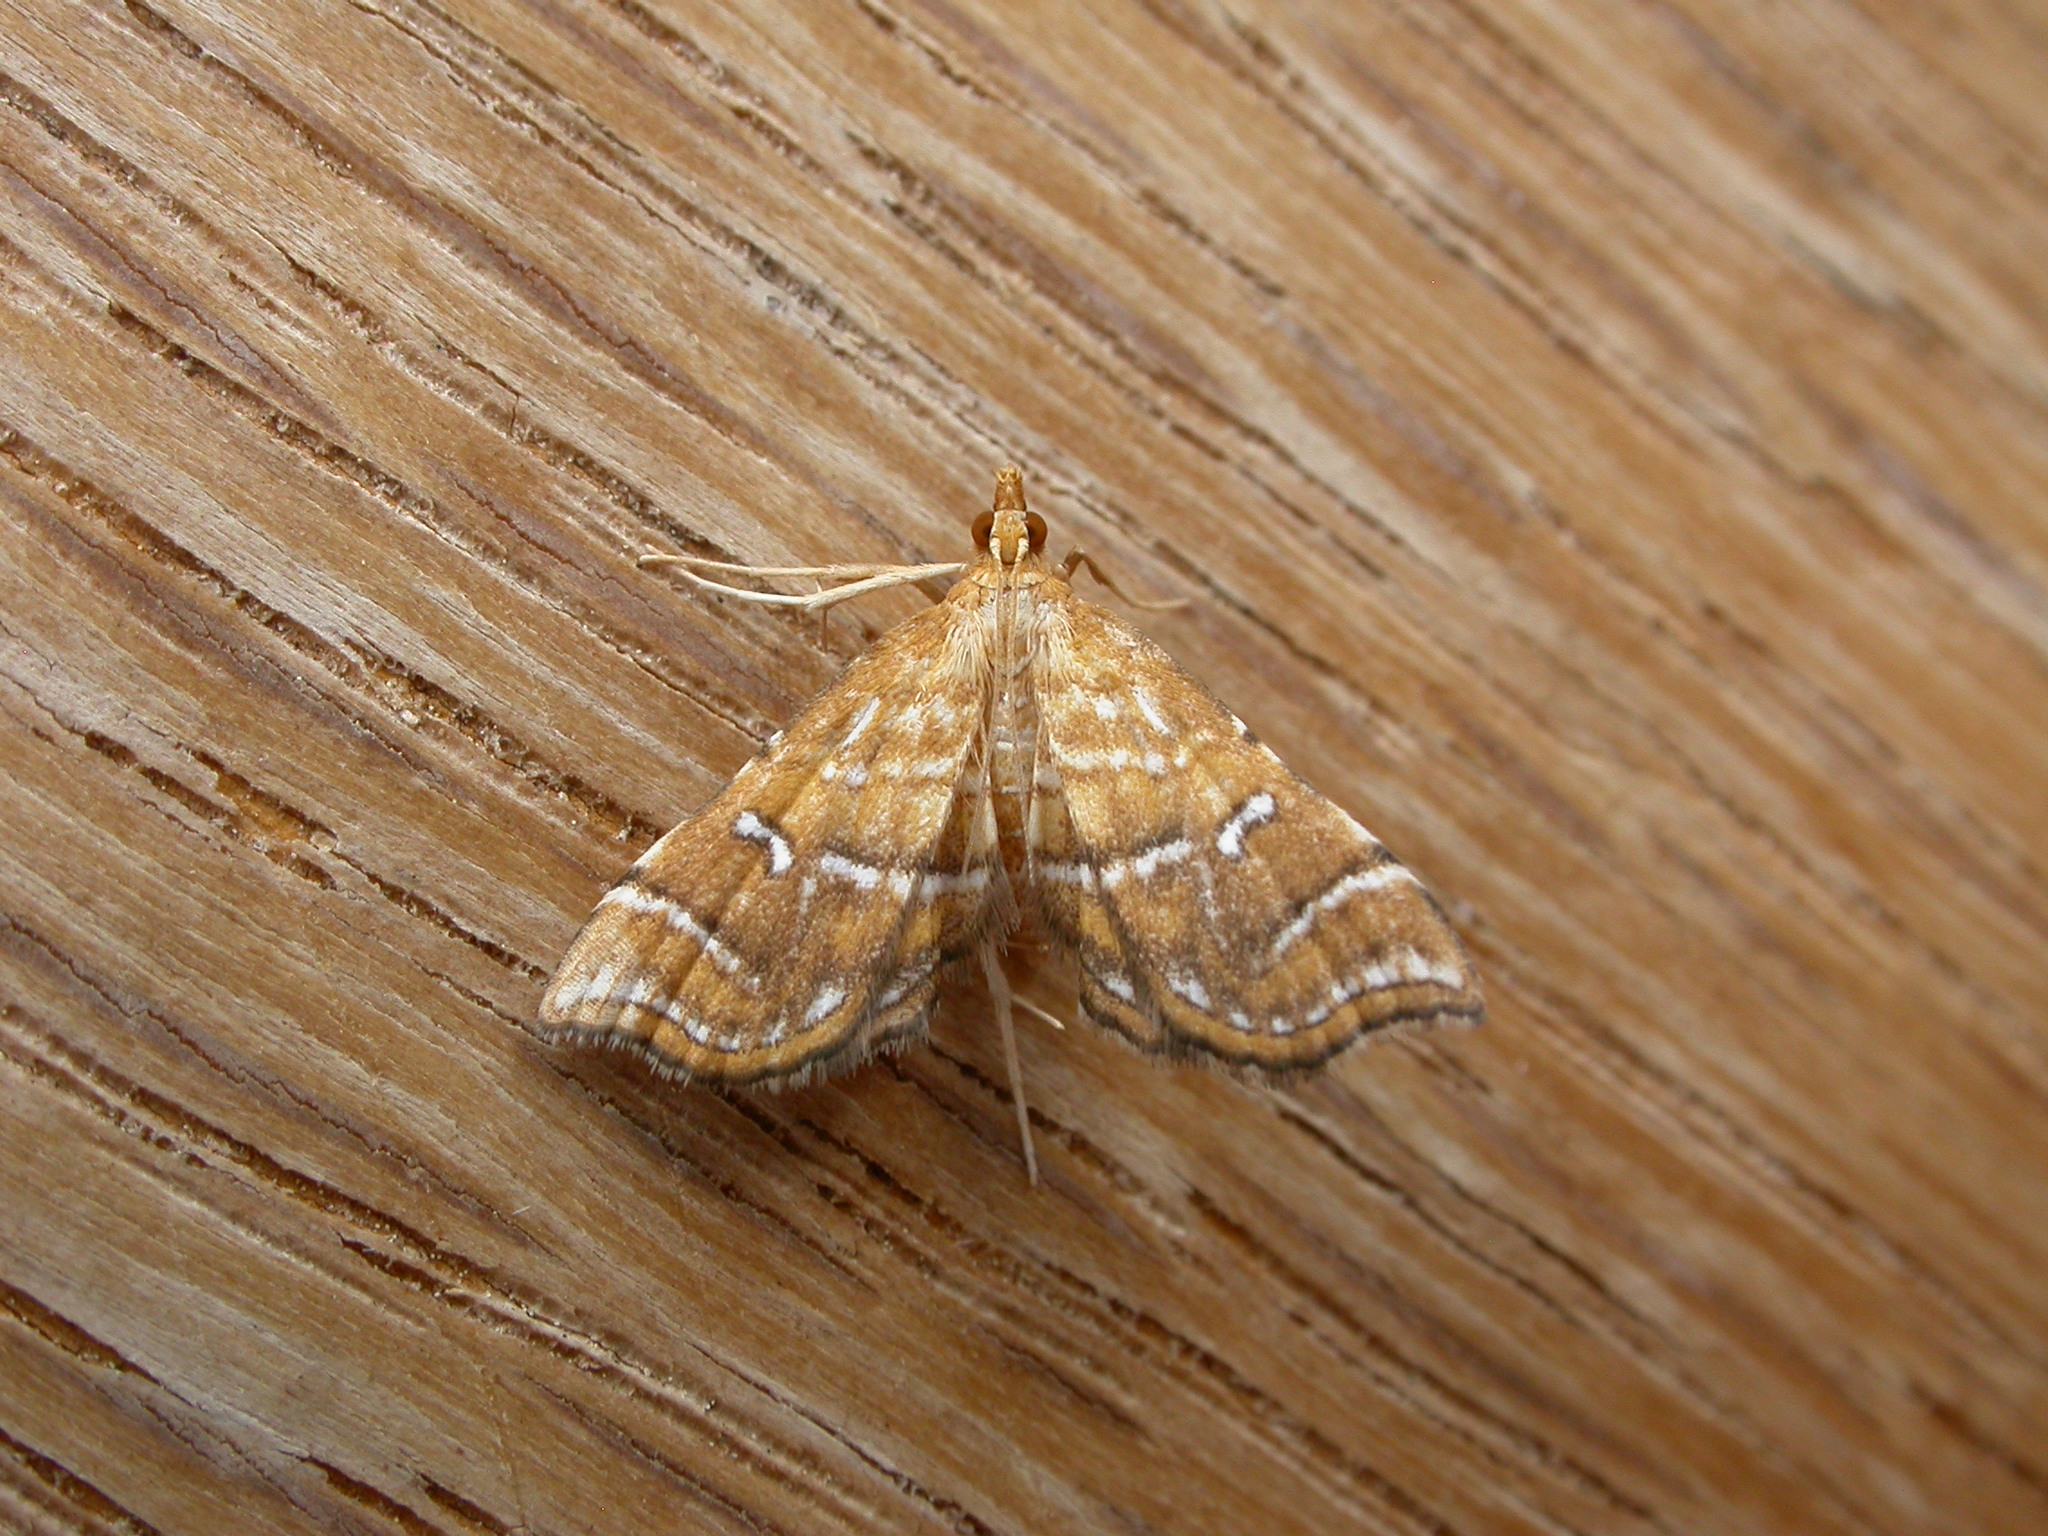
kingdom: Animalia
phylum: Arthropoda
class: Insecta
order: Lepidoptera
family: Pyralidae
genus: Musotima
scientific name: Musotima ochropteralis
